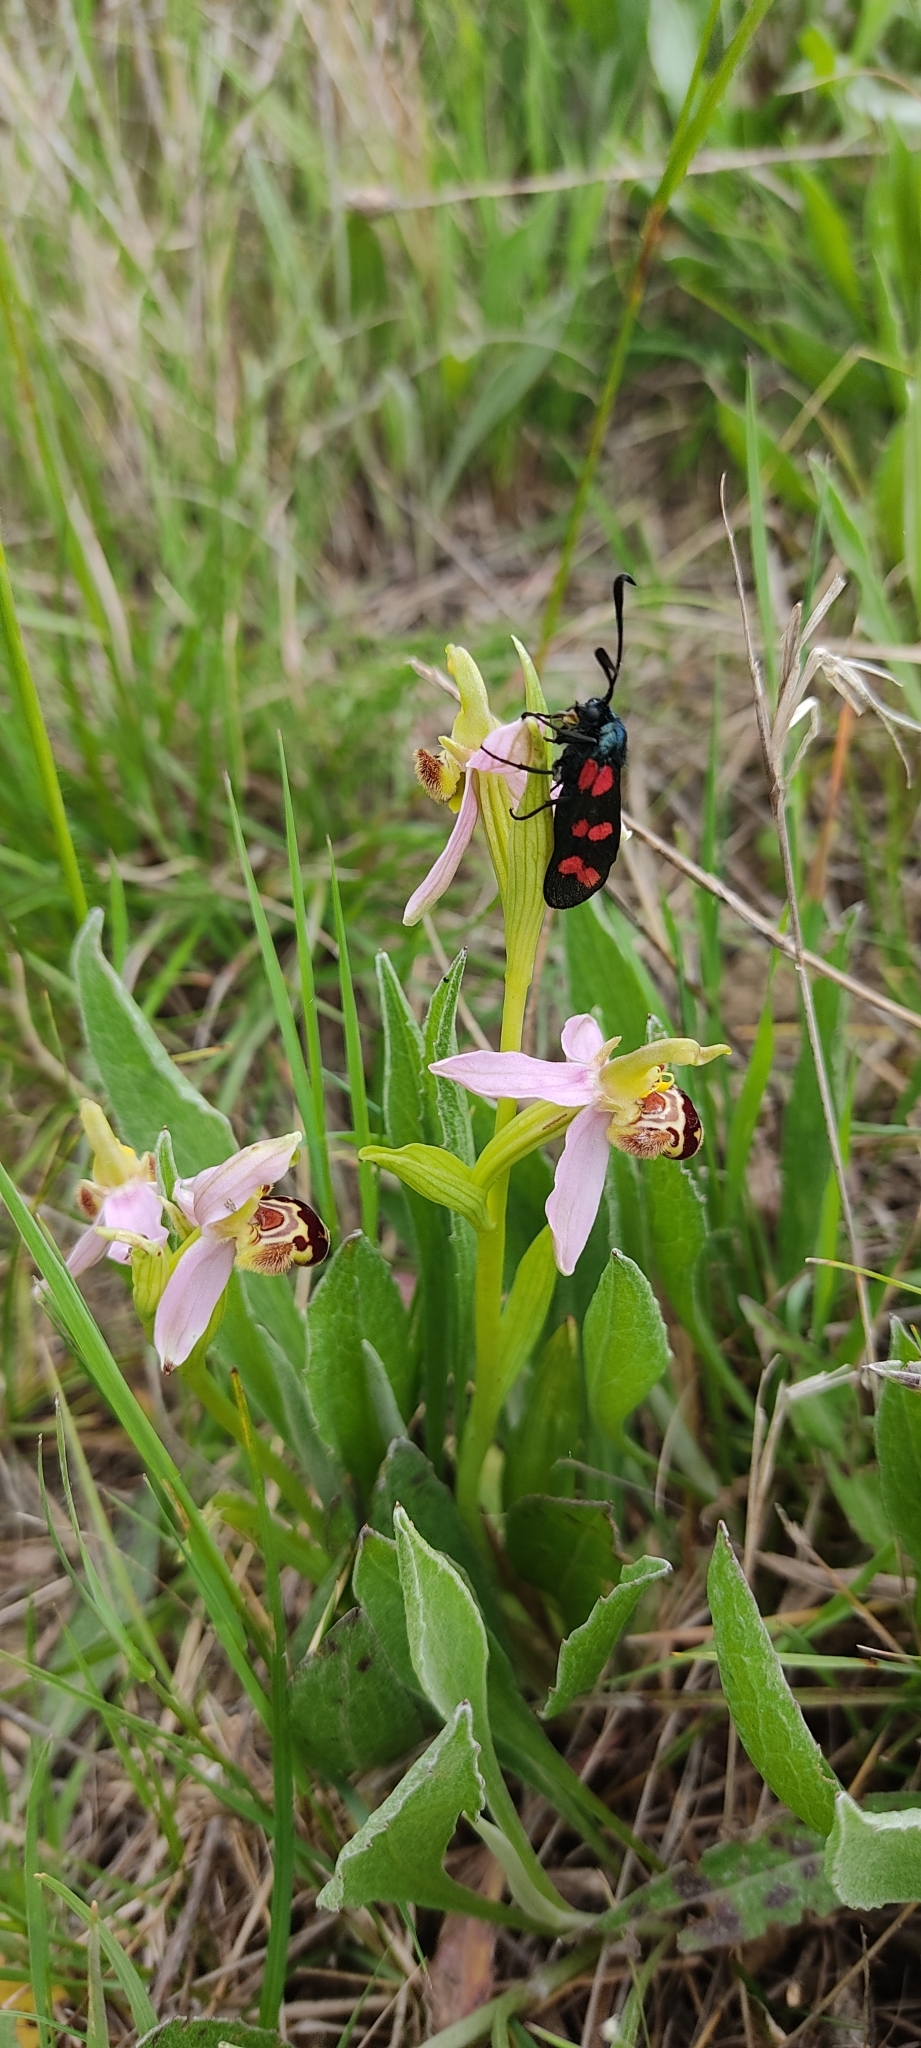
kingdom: Animalia
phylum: Arthropoda
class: Insecta
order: Lepidoptera
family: Zygaenidae
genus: Zygaena
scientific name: Zygaena filipendulae
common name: Six-spot burnet
